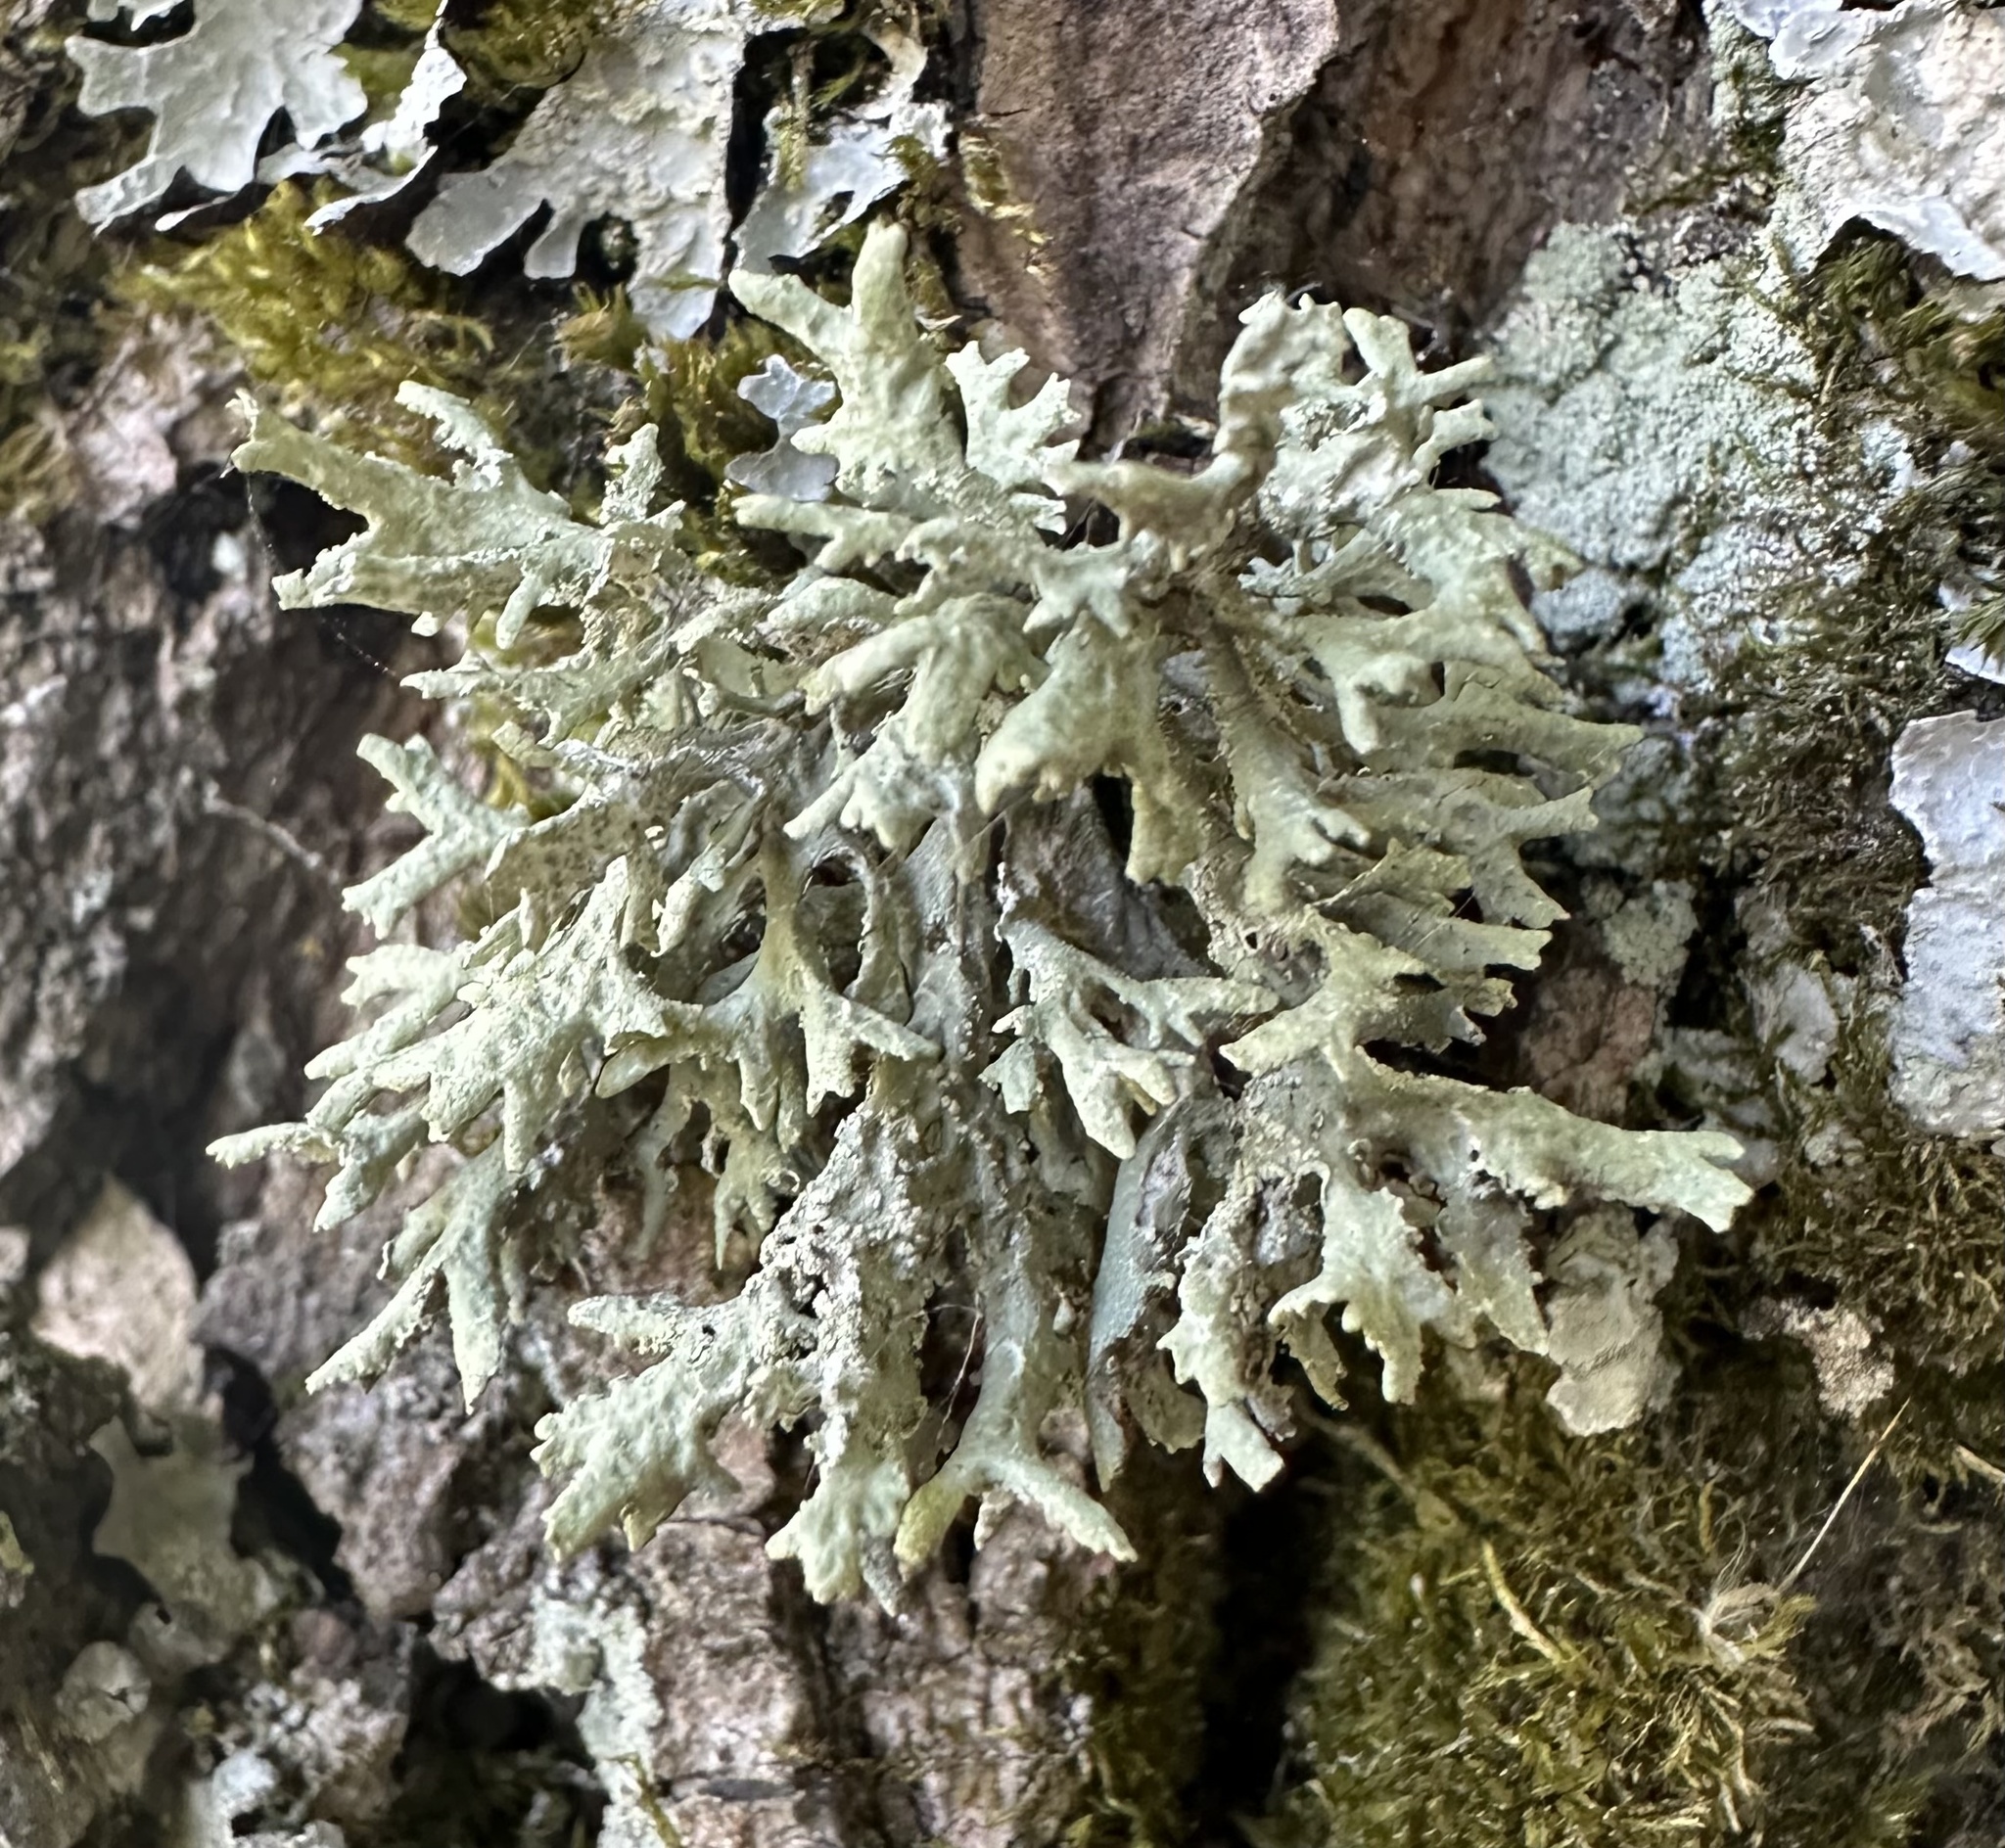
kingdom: Fungi
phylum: Ascomycota
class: Lecanoromycetes
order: Lecanorales
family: Parmeliaceae
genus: Evernia
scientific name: Evernia prunastri
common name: Oak moss
